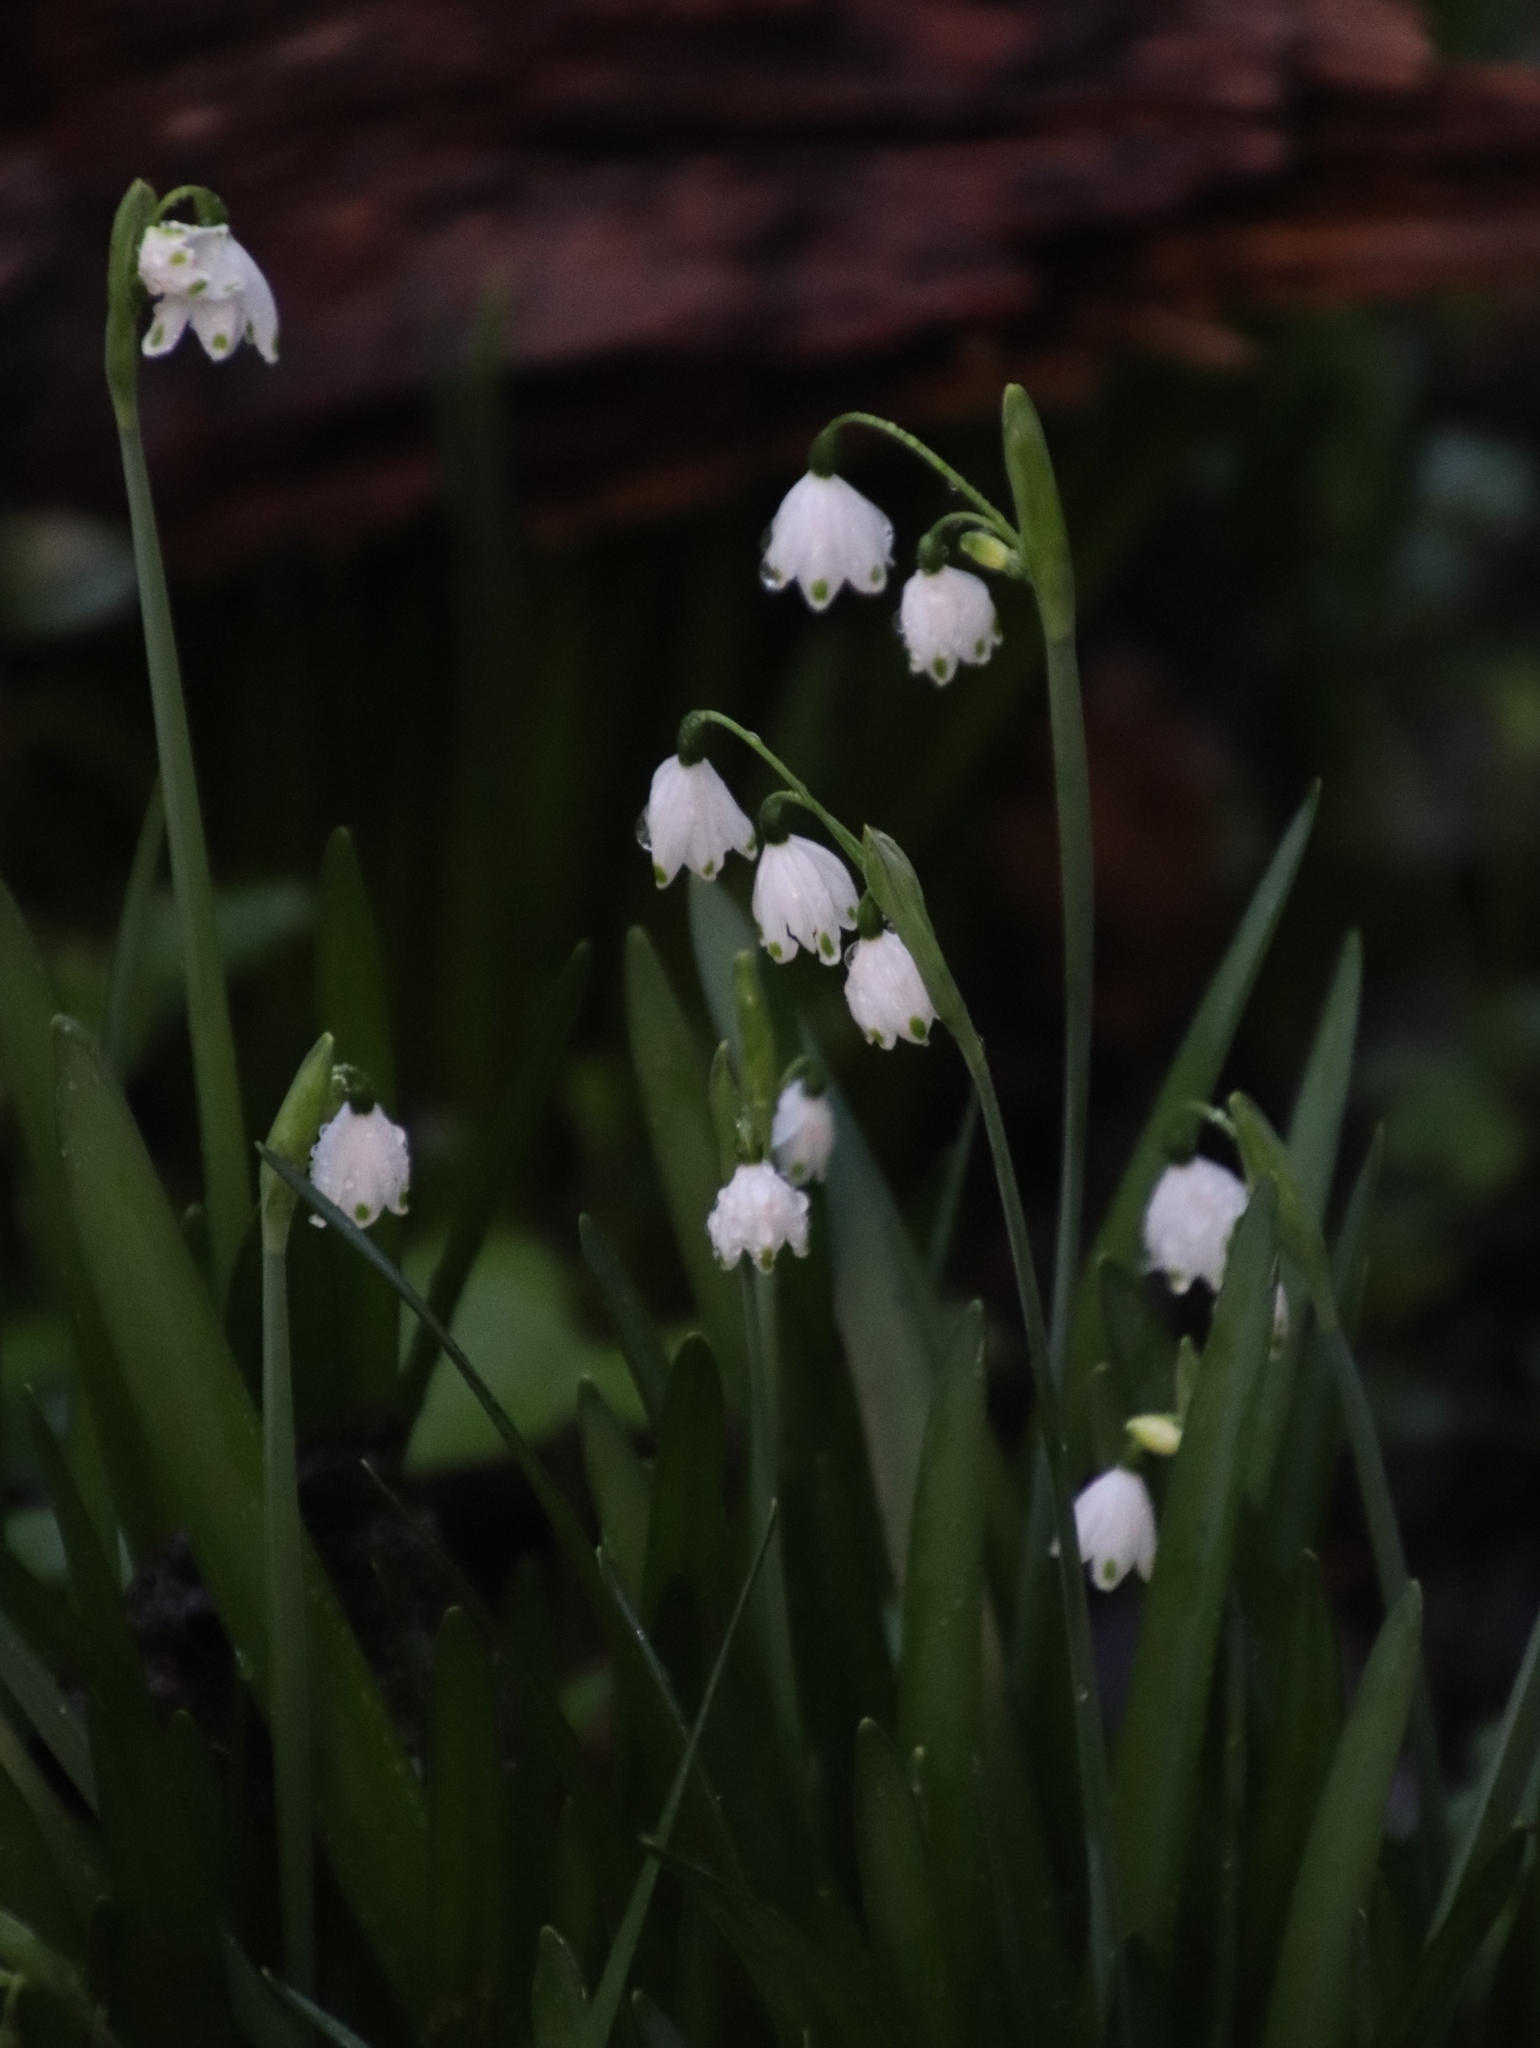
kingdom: Plantae
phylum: Tracheophyta
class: Liliopsida
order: Asparagales
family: Amaryllidaceae
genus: Leucojum
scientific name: Leucojum aestivum
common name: Summer snowflake
